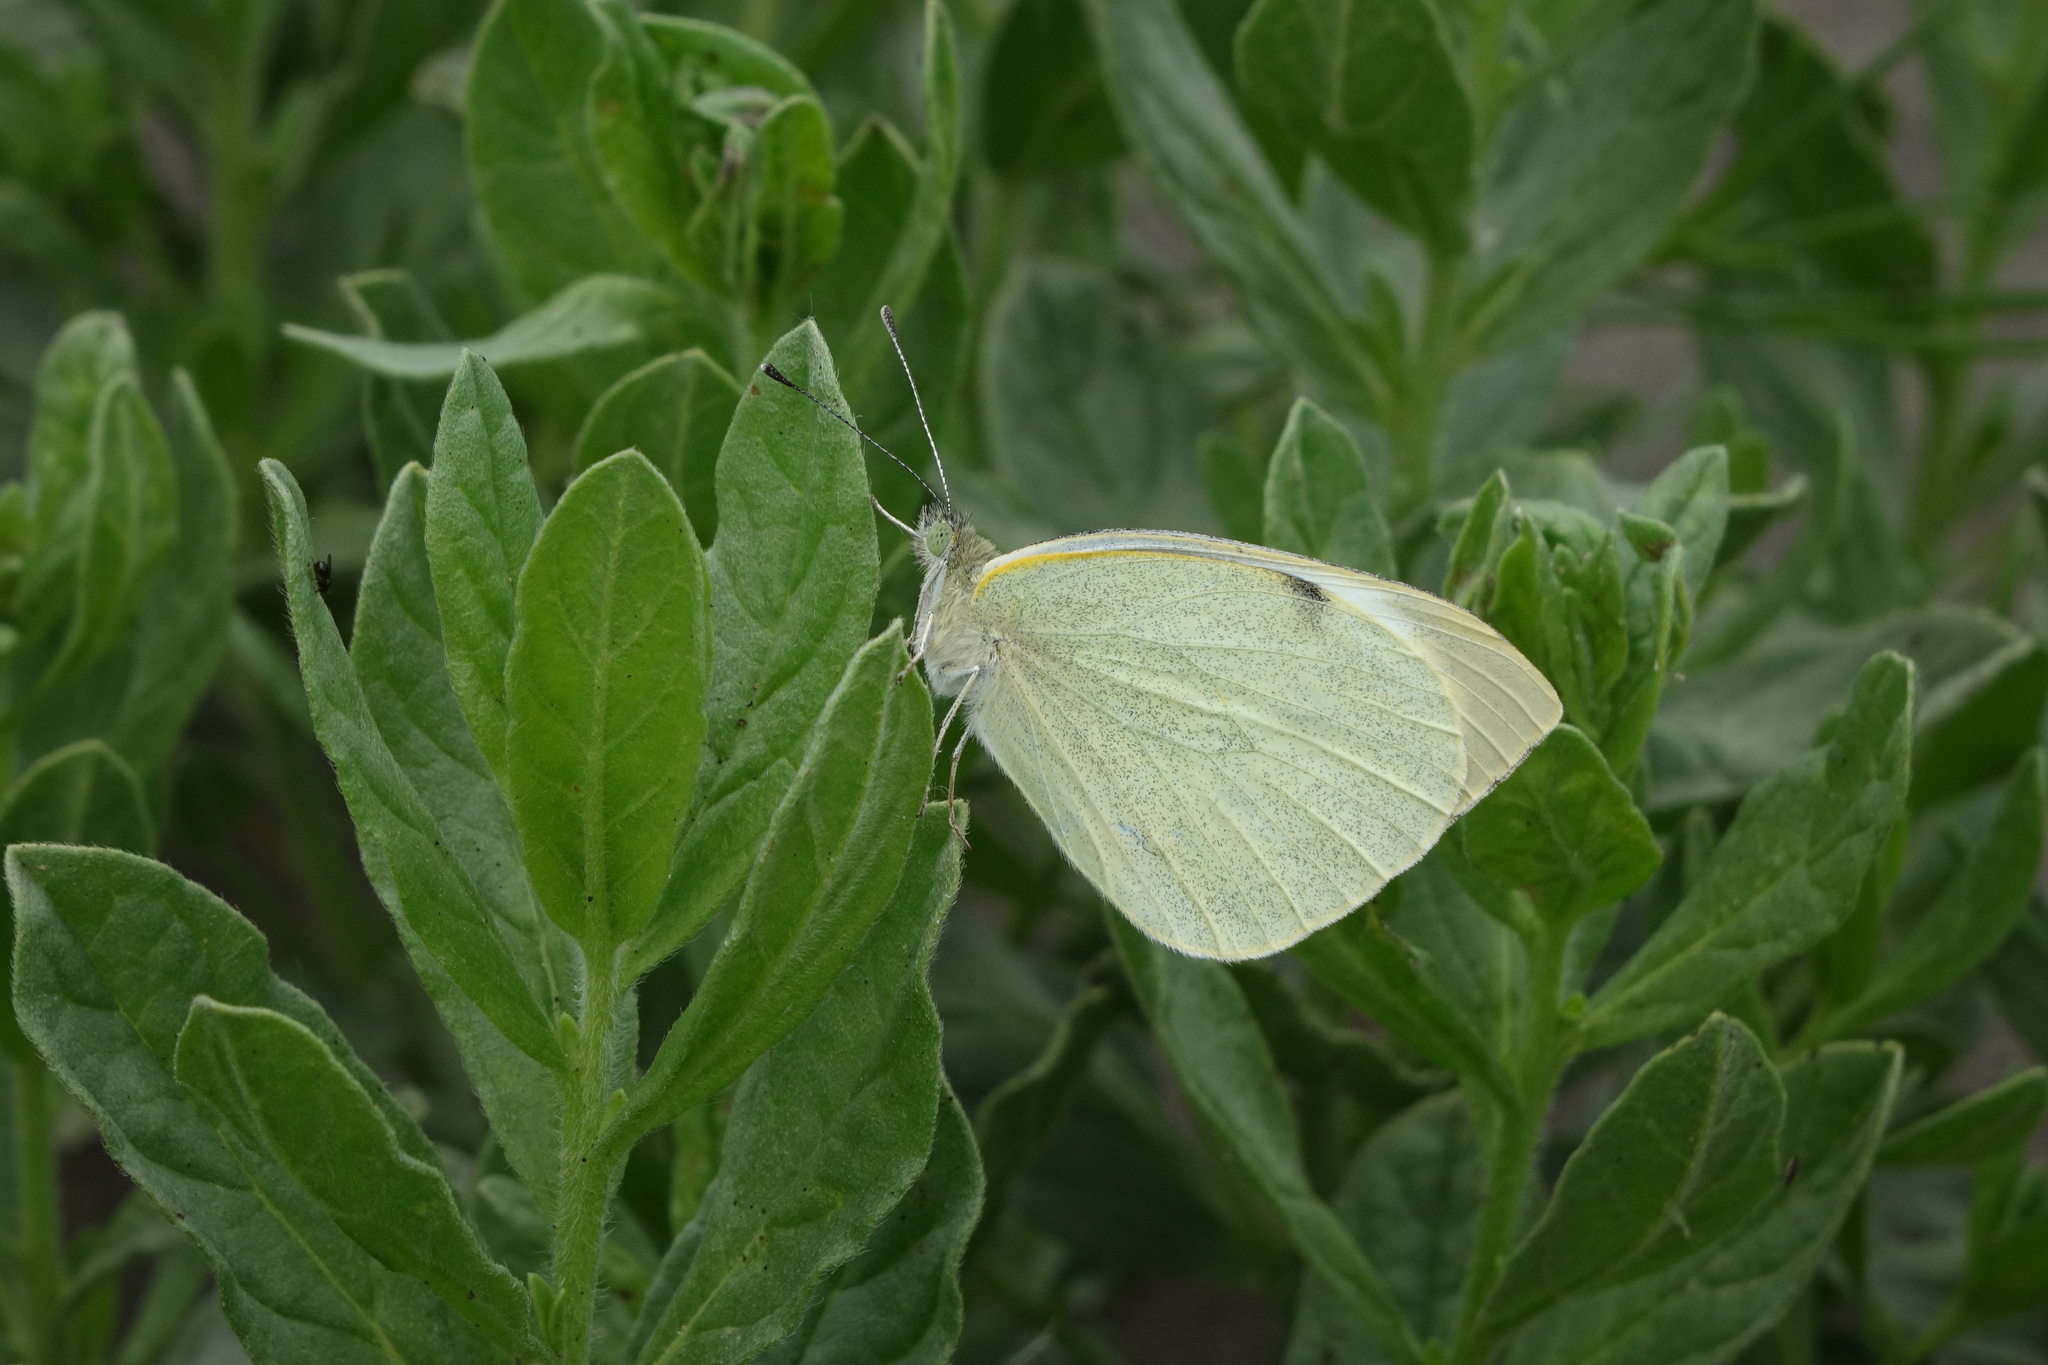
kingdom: Animalia
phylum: Arthropoda
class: Insecta
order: Lepidoptera
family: Pieridae
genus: Pieris
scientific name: Pieris brassicae
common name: Large white
